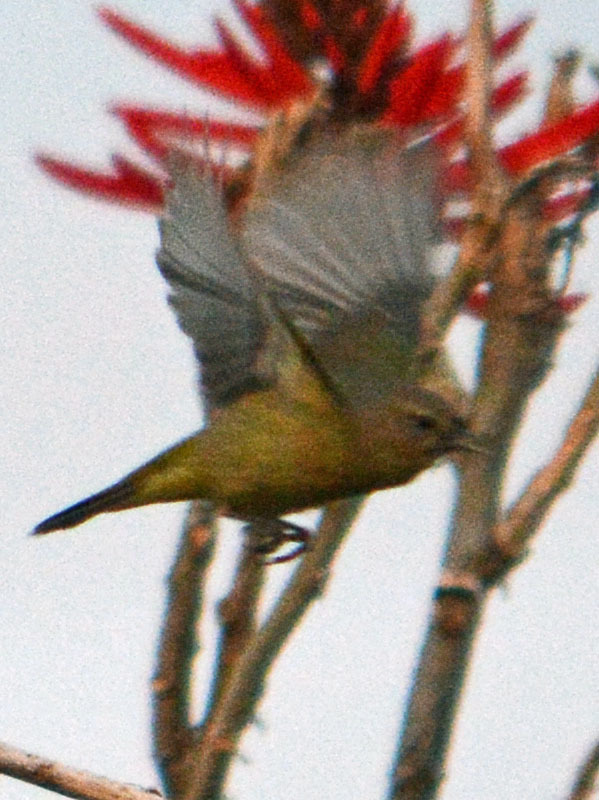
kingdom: Animalia
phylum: Chordata
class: Aves
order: Passeriformes
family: Parulidae
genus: Leiothlypis
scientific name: Leiothlypis celata
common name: Orange-crowned warbler
